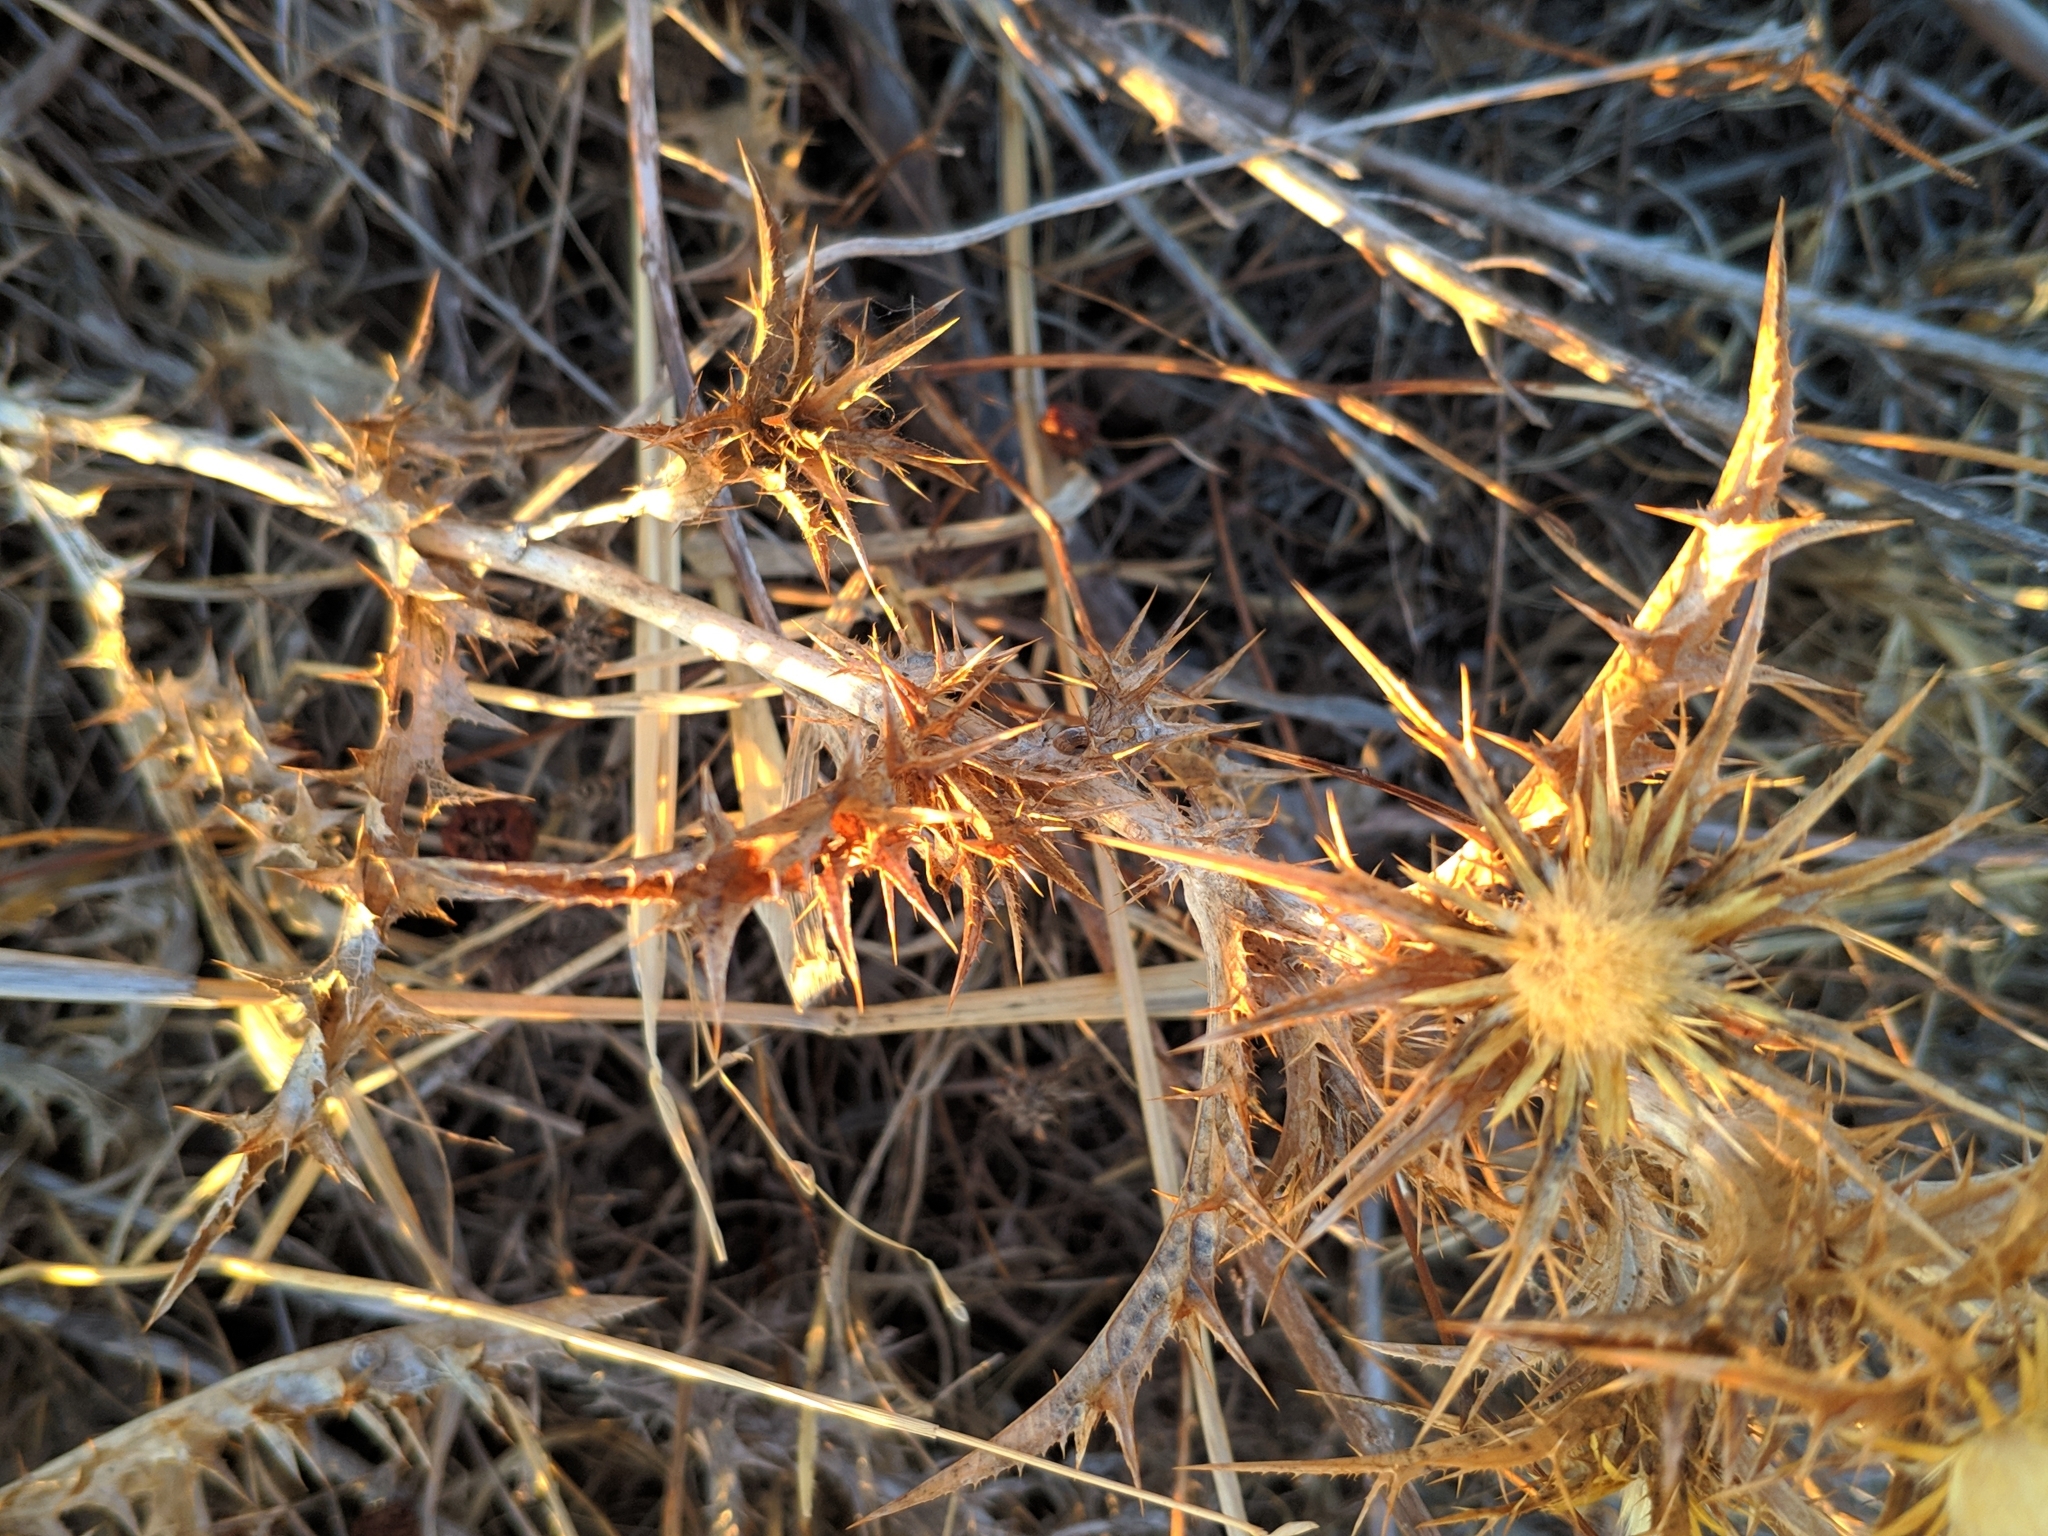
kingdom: Plantae
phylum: Tracheophyta
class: Magnoliopsida
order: Asterales
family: Asteraceae
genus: Carlina
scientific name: Carlina graeca
